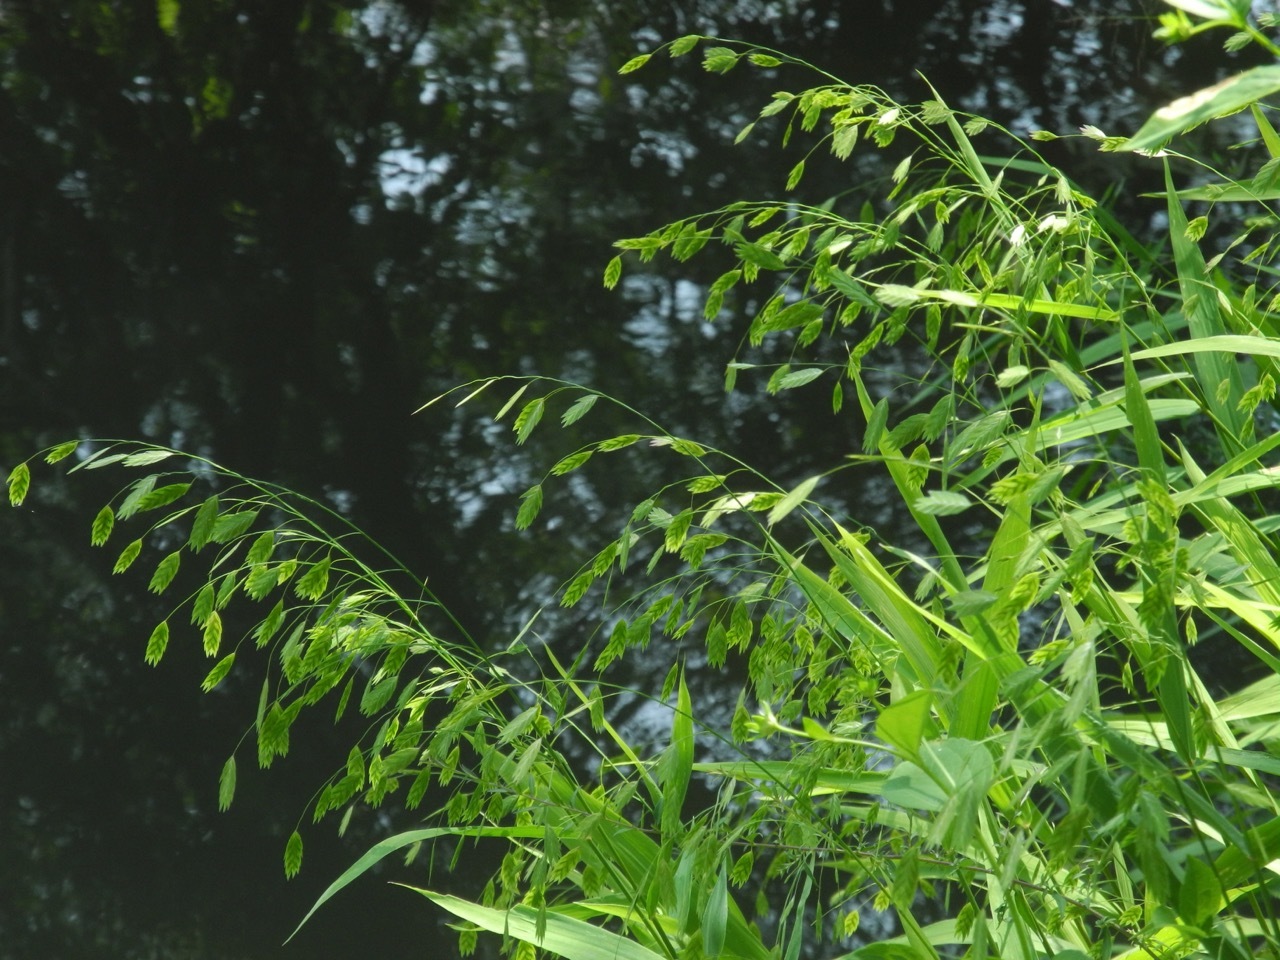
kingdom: Plantae
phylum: Tracheophyta
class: Liliopsida
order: Poales
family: Poaceae
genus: Chasmanthium
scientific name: Chasmanthium latifolium
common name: Broad-leaved chasmanthium
